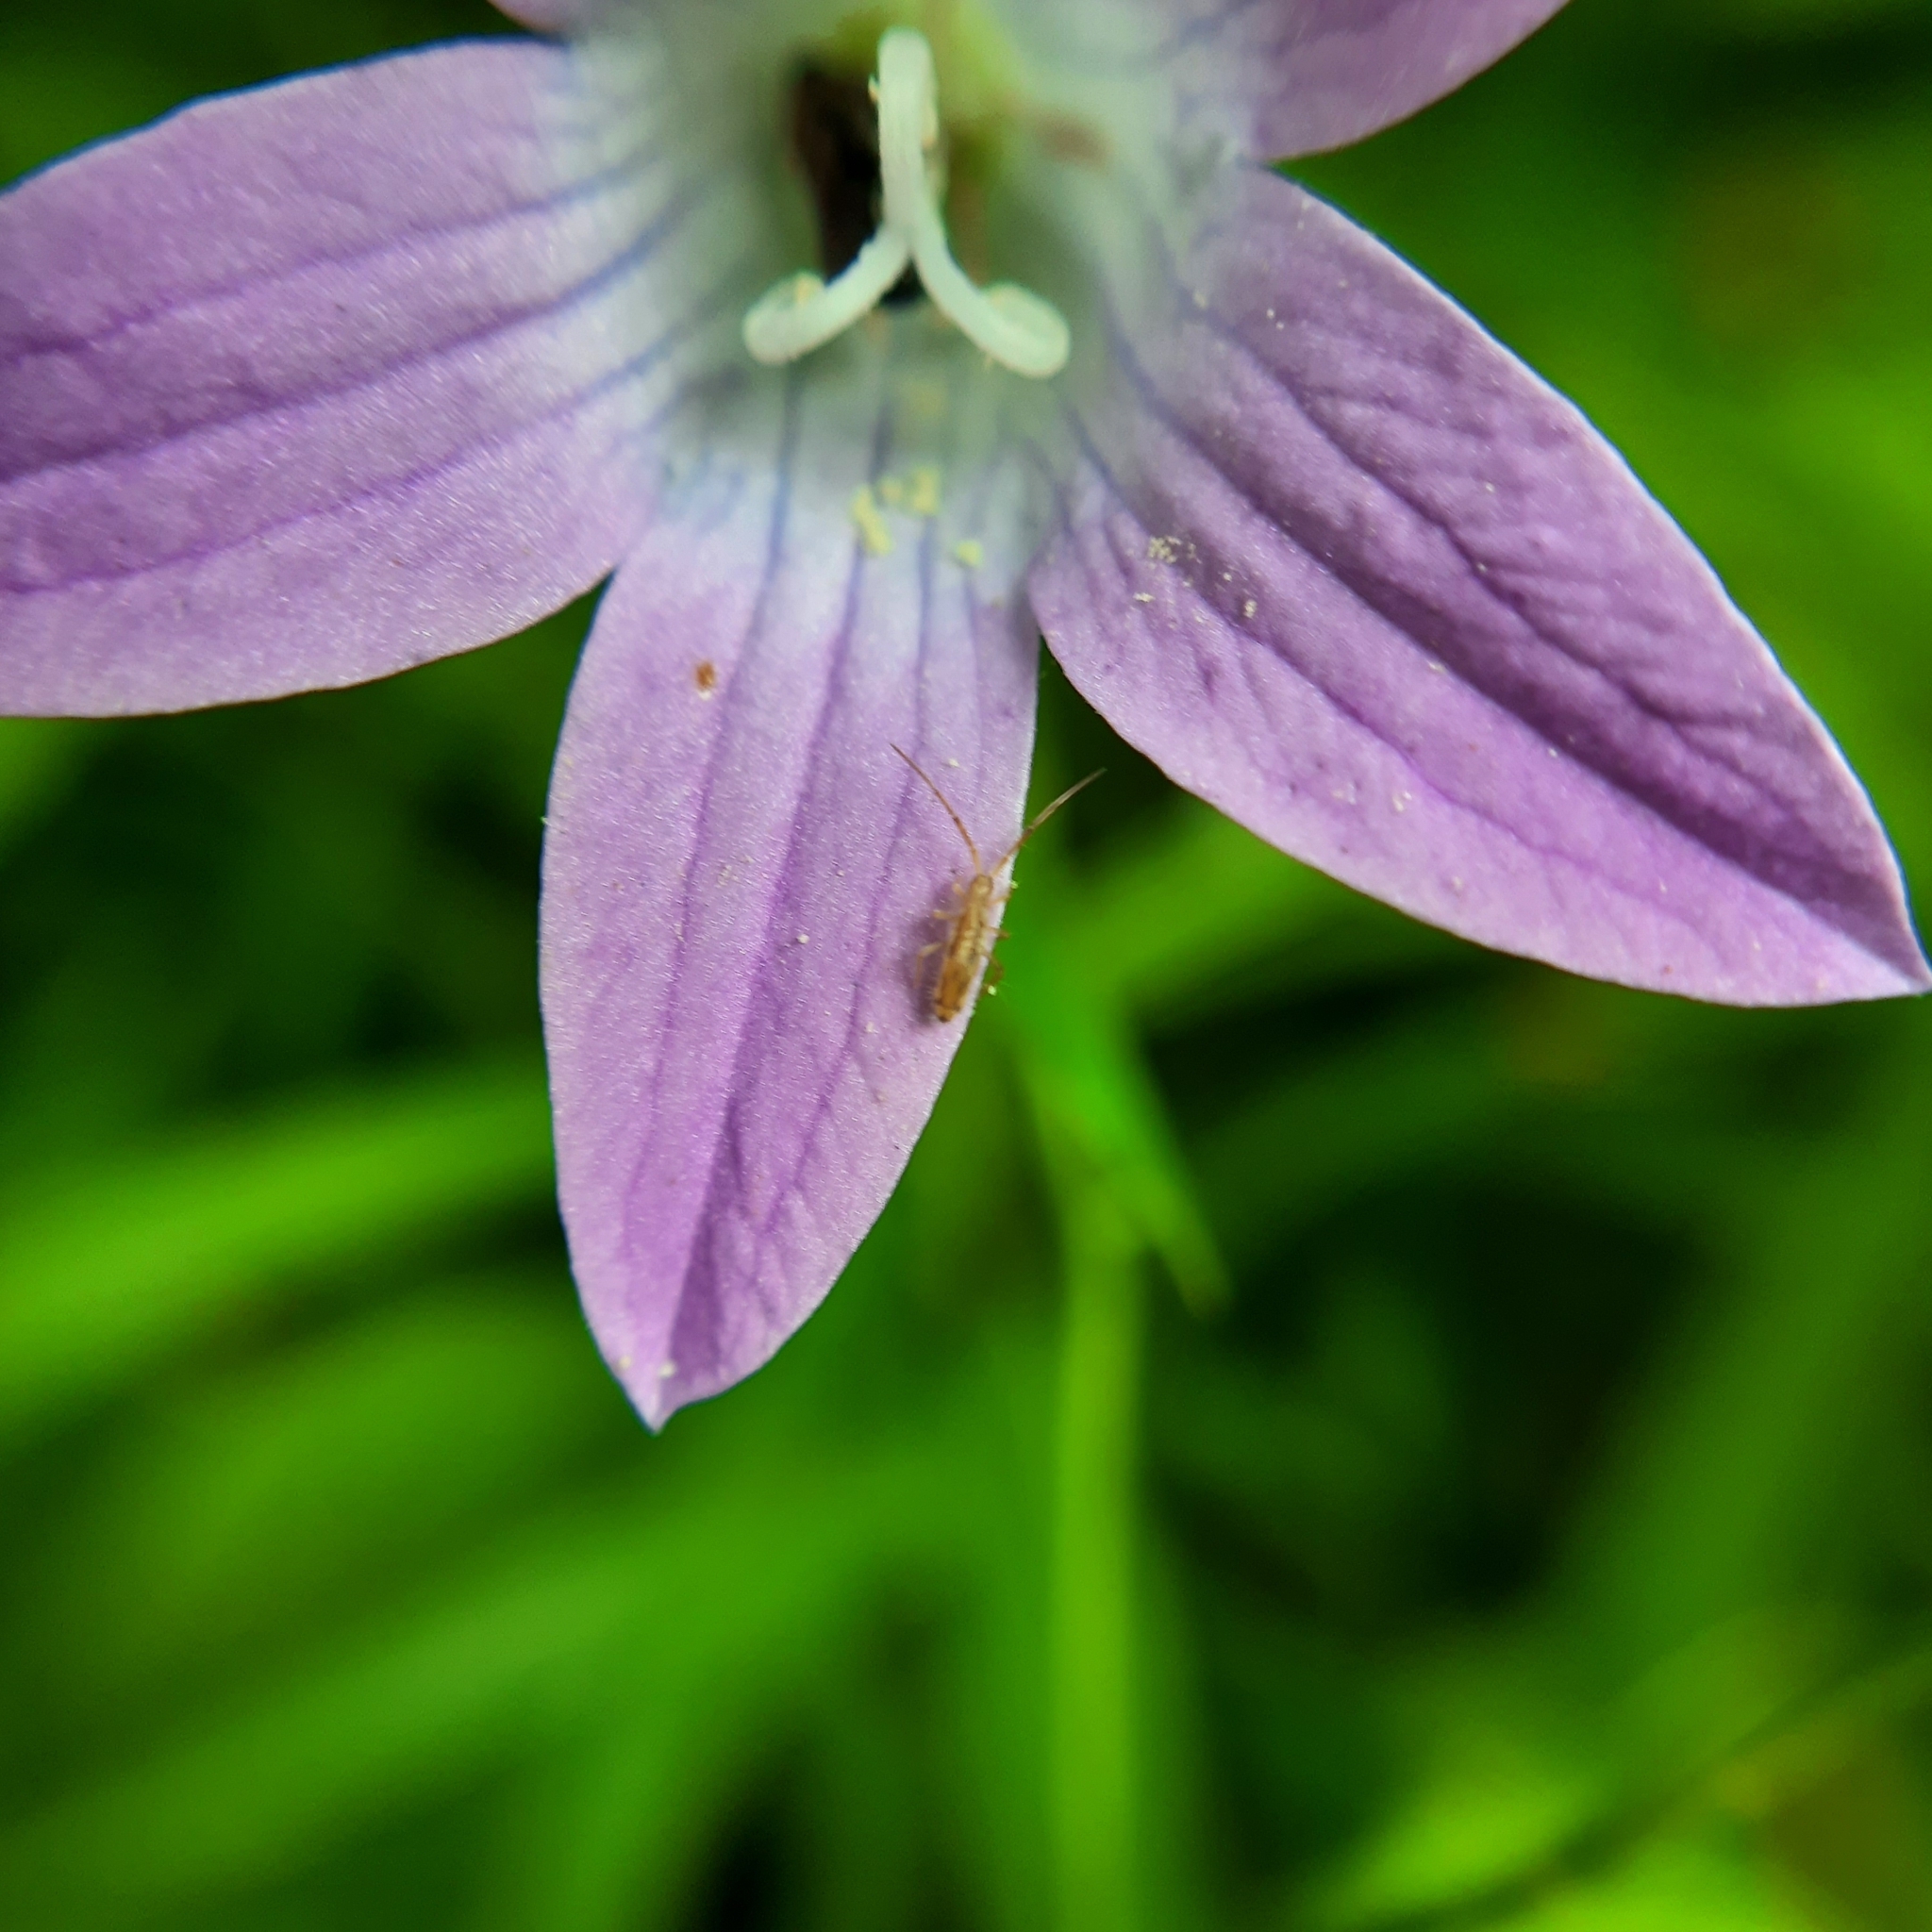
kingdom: Animalia
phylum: Arthropoda
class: Collembola
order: Entomobryomorpha
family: Orchesellidae
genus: Orchesella
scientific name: Orchesella
